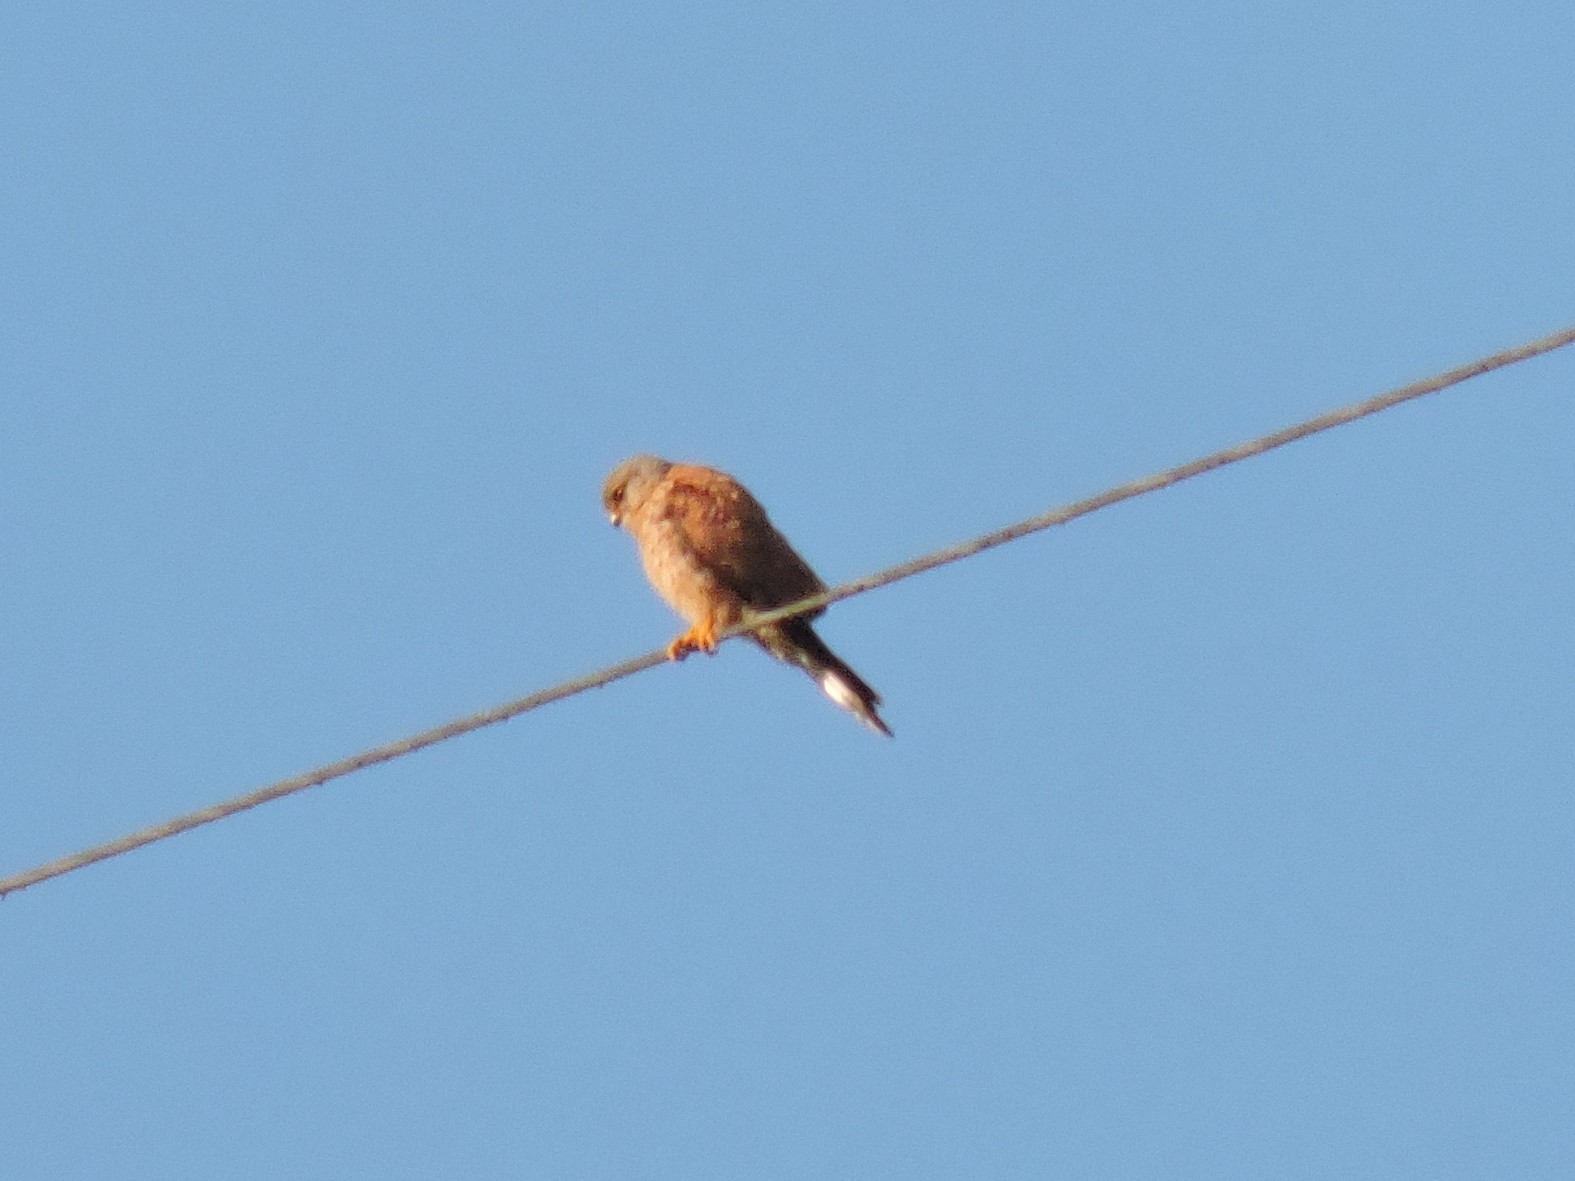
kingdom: Animalia
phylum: Chordata
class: Aves
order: Falconiformes
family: Falconidae
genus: Falco
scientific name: Falco tinnunculus
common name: Common kestrel
